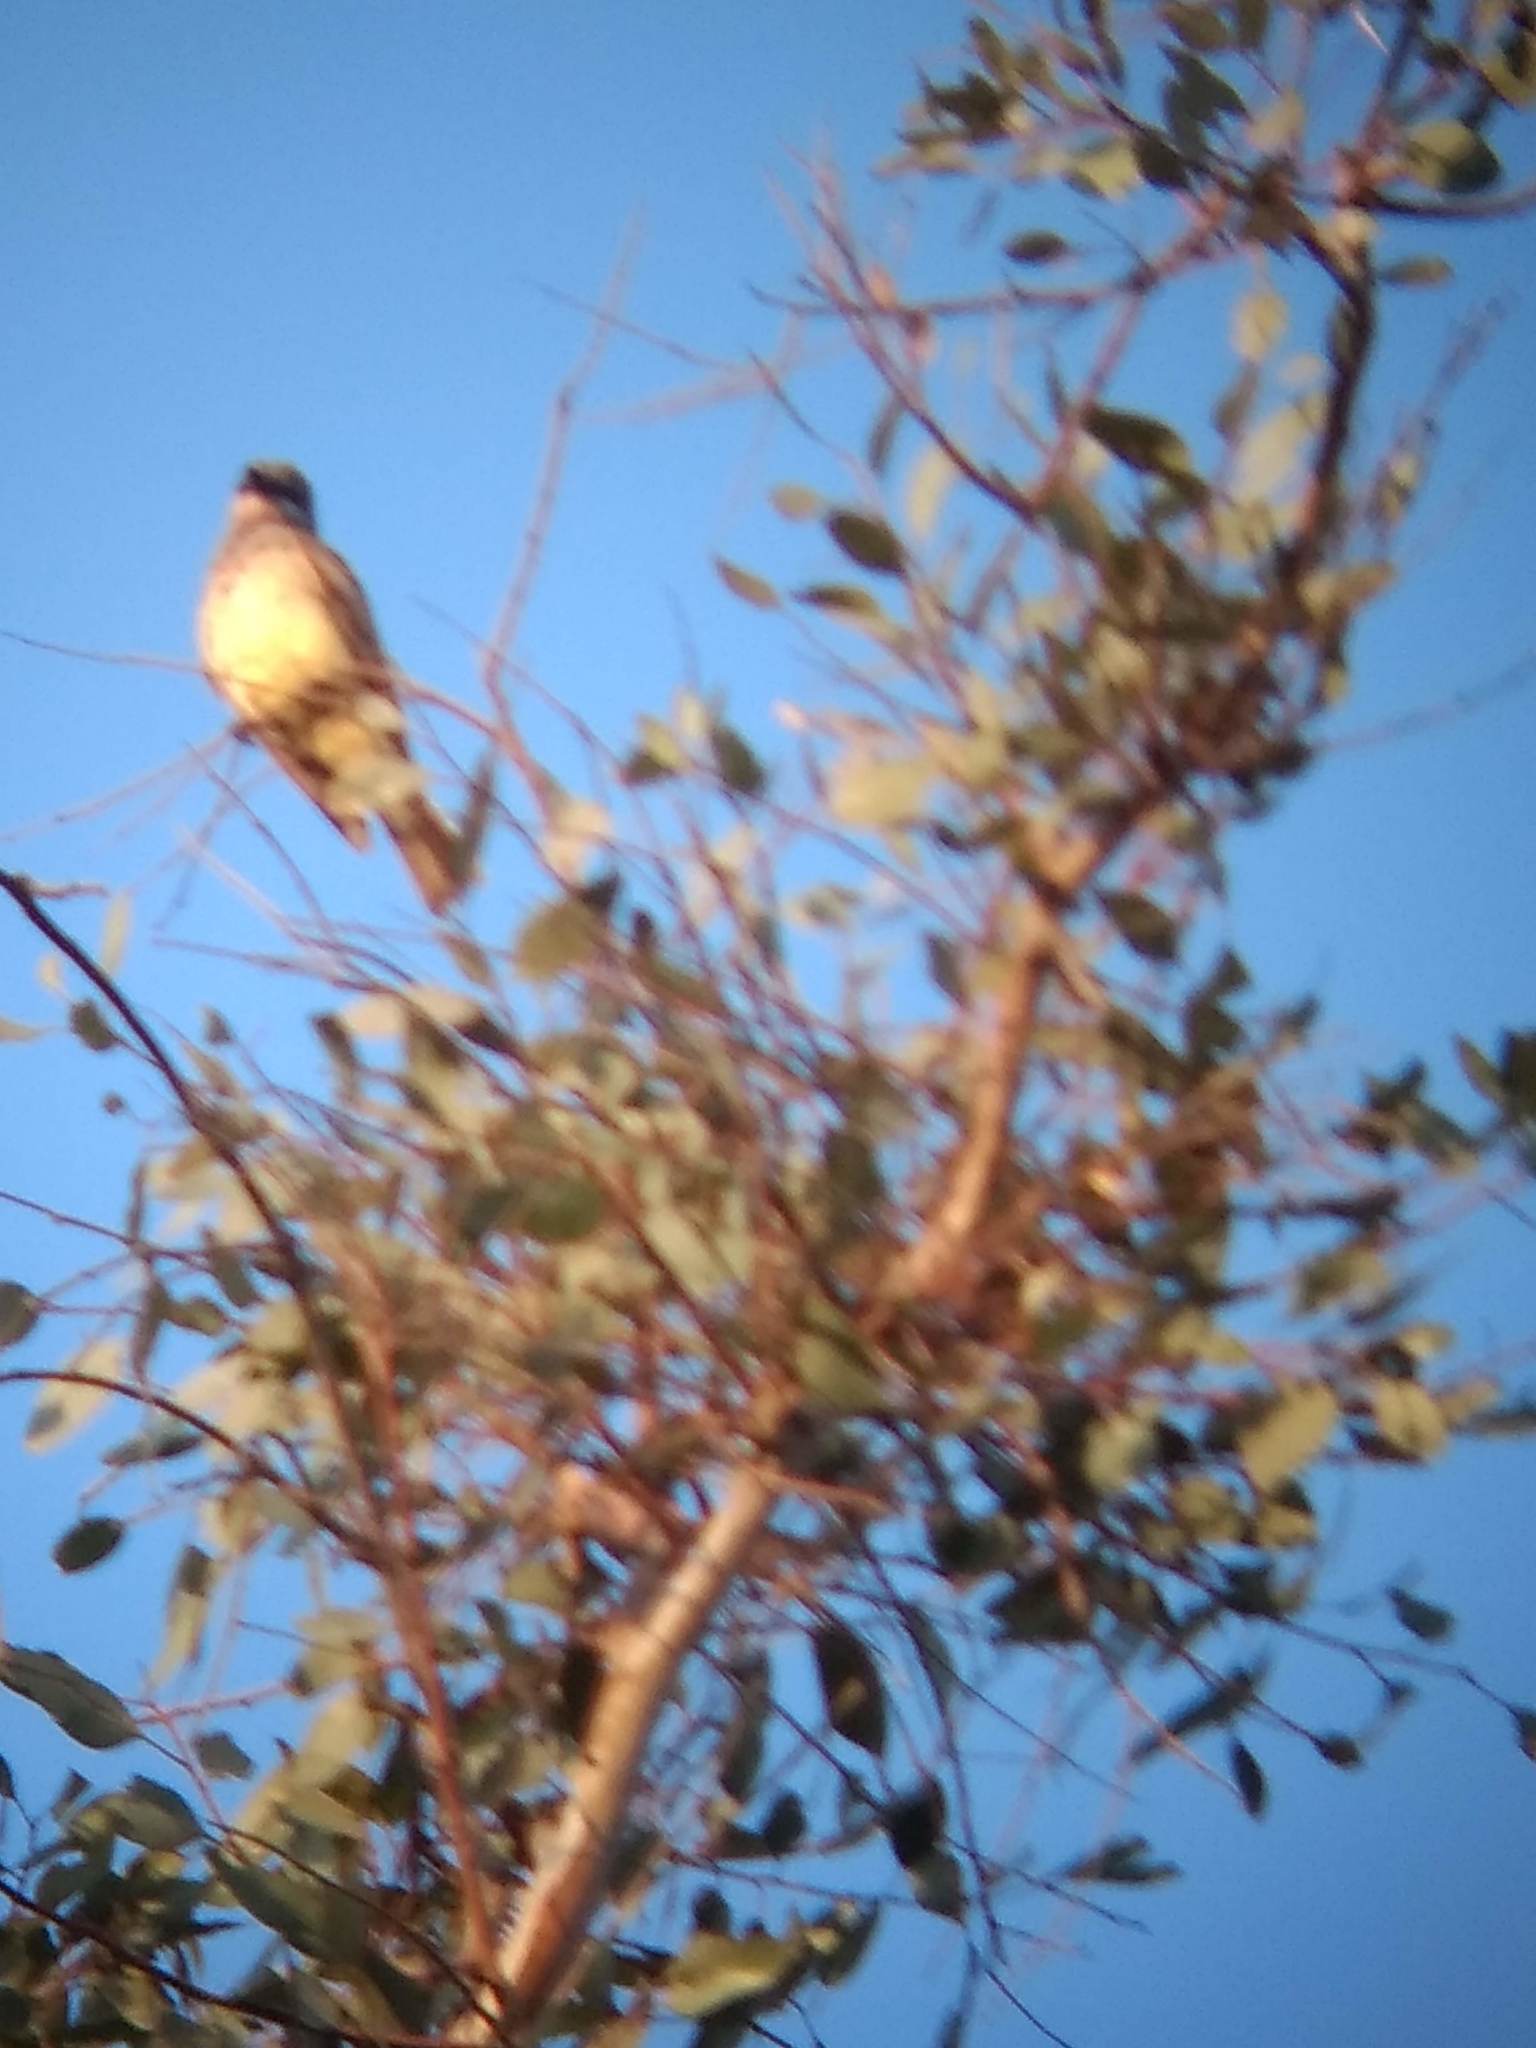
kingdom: Animalia
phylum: Chordata
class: Aves
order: Passeriformes
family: Tyrannidae
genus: Tyrannus
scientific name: Tyrannus vociferans
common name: Cassin's kingbird
